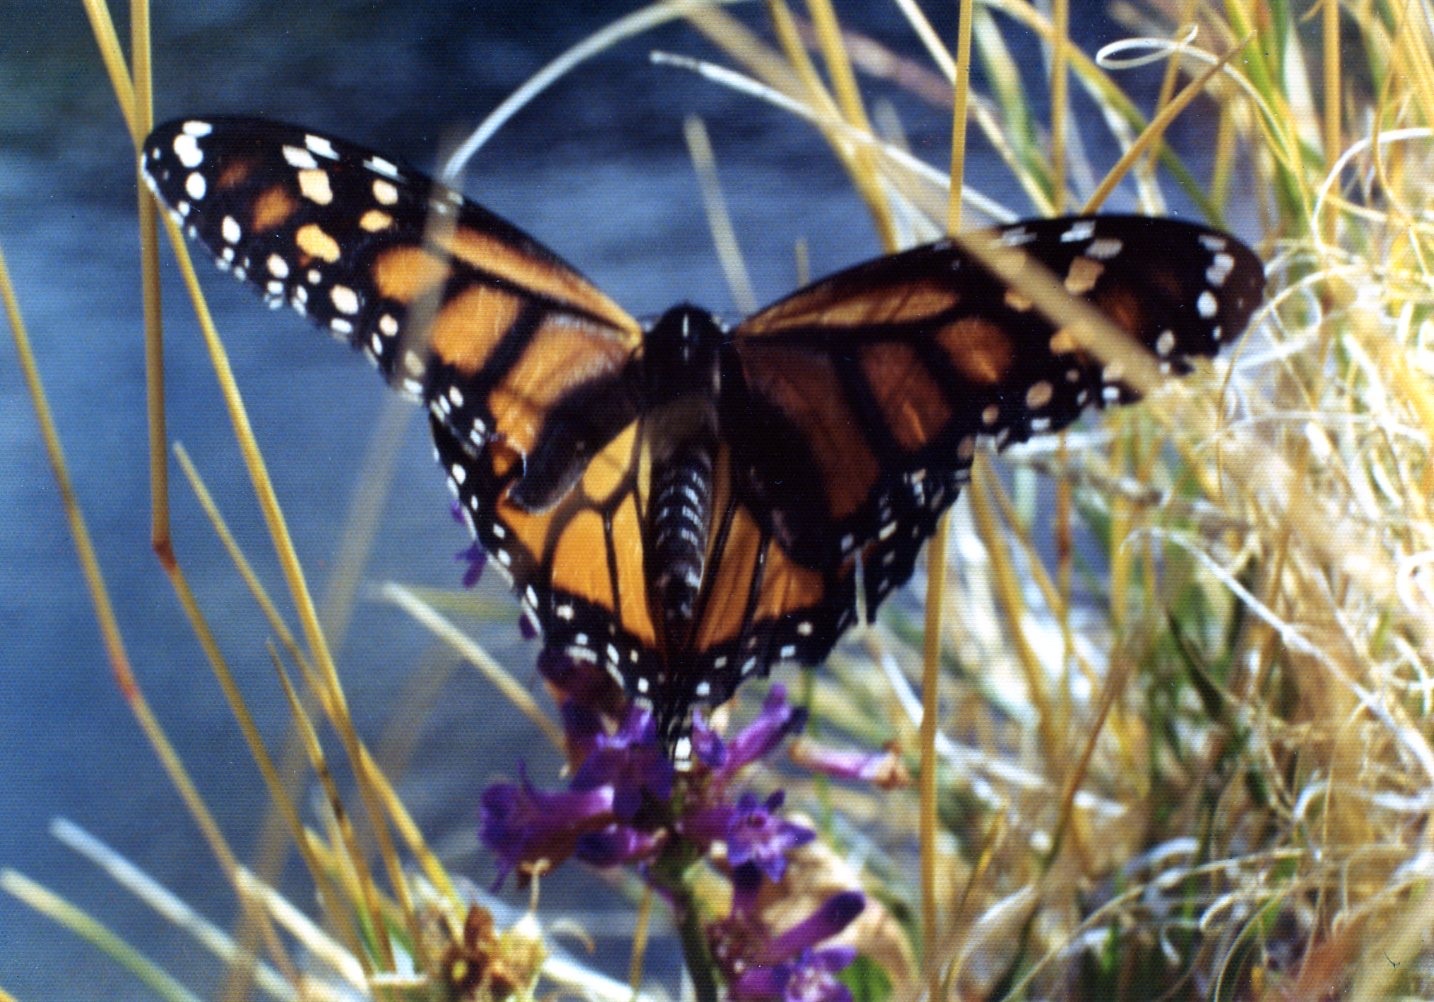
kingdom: Animalia
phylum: Arthropoda
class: Insecta
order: Lepidoptera
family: Nymphalidae
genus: Danaus
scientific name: Danaus plexippus
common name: Monarch
